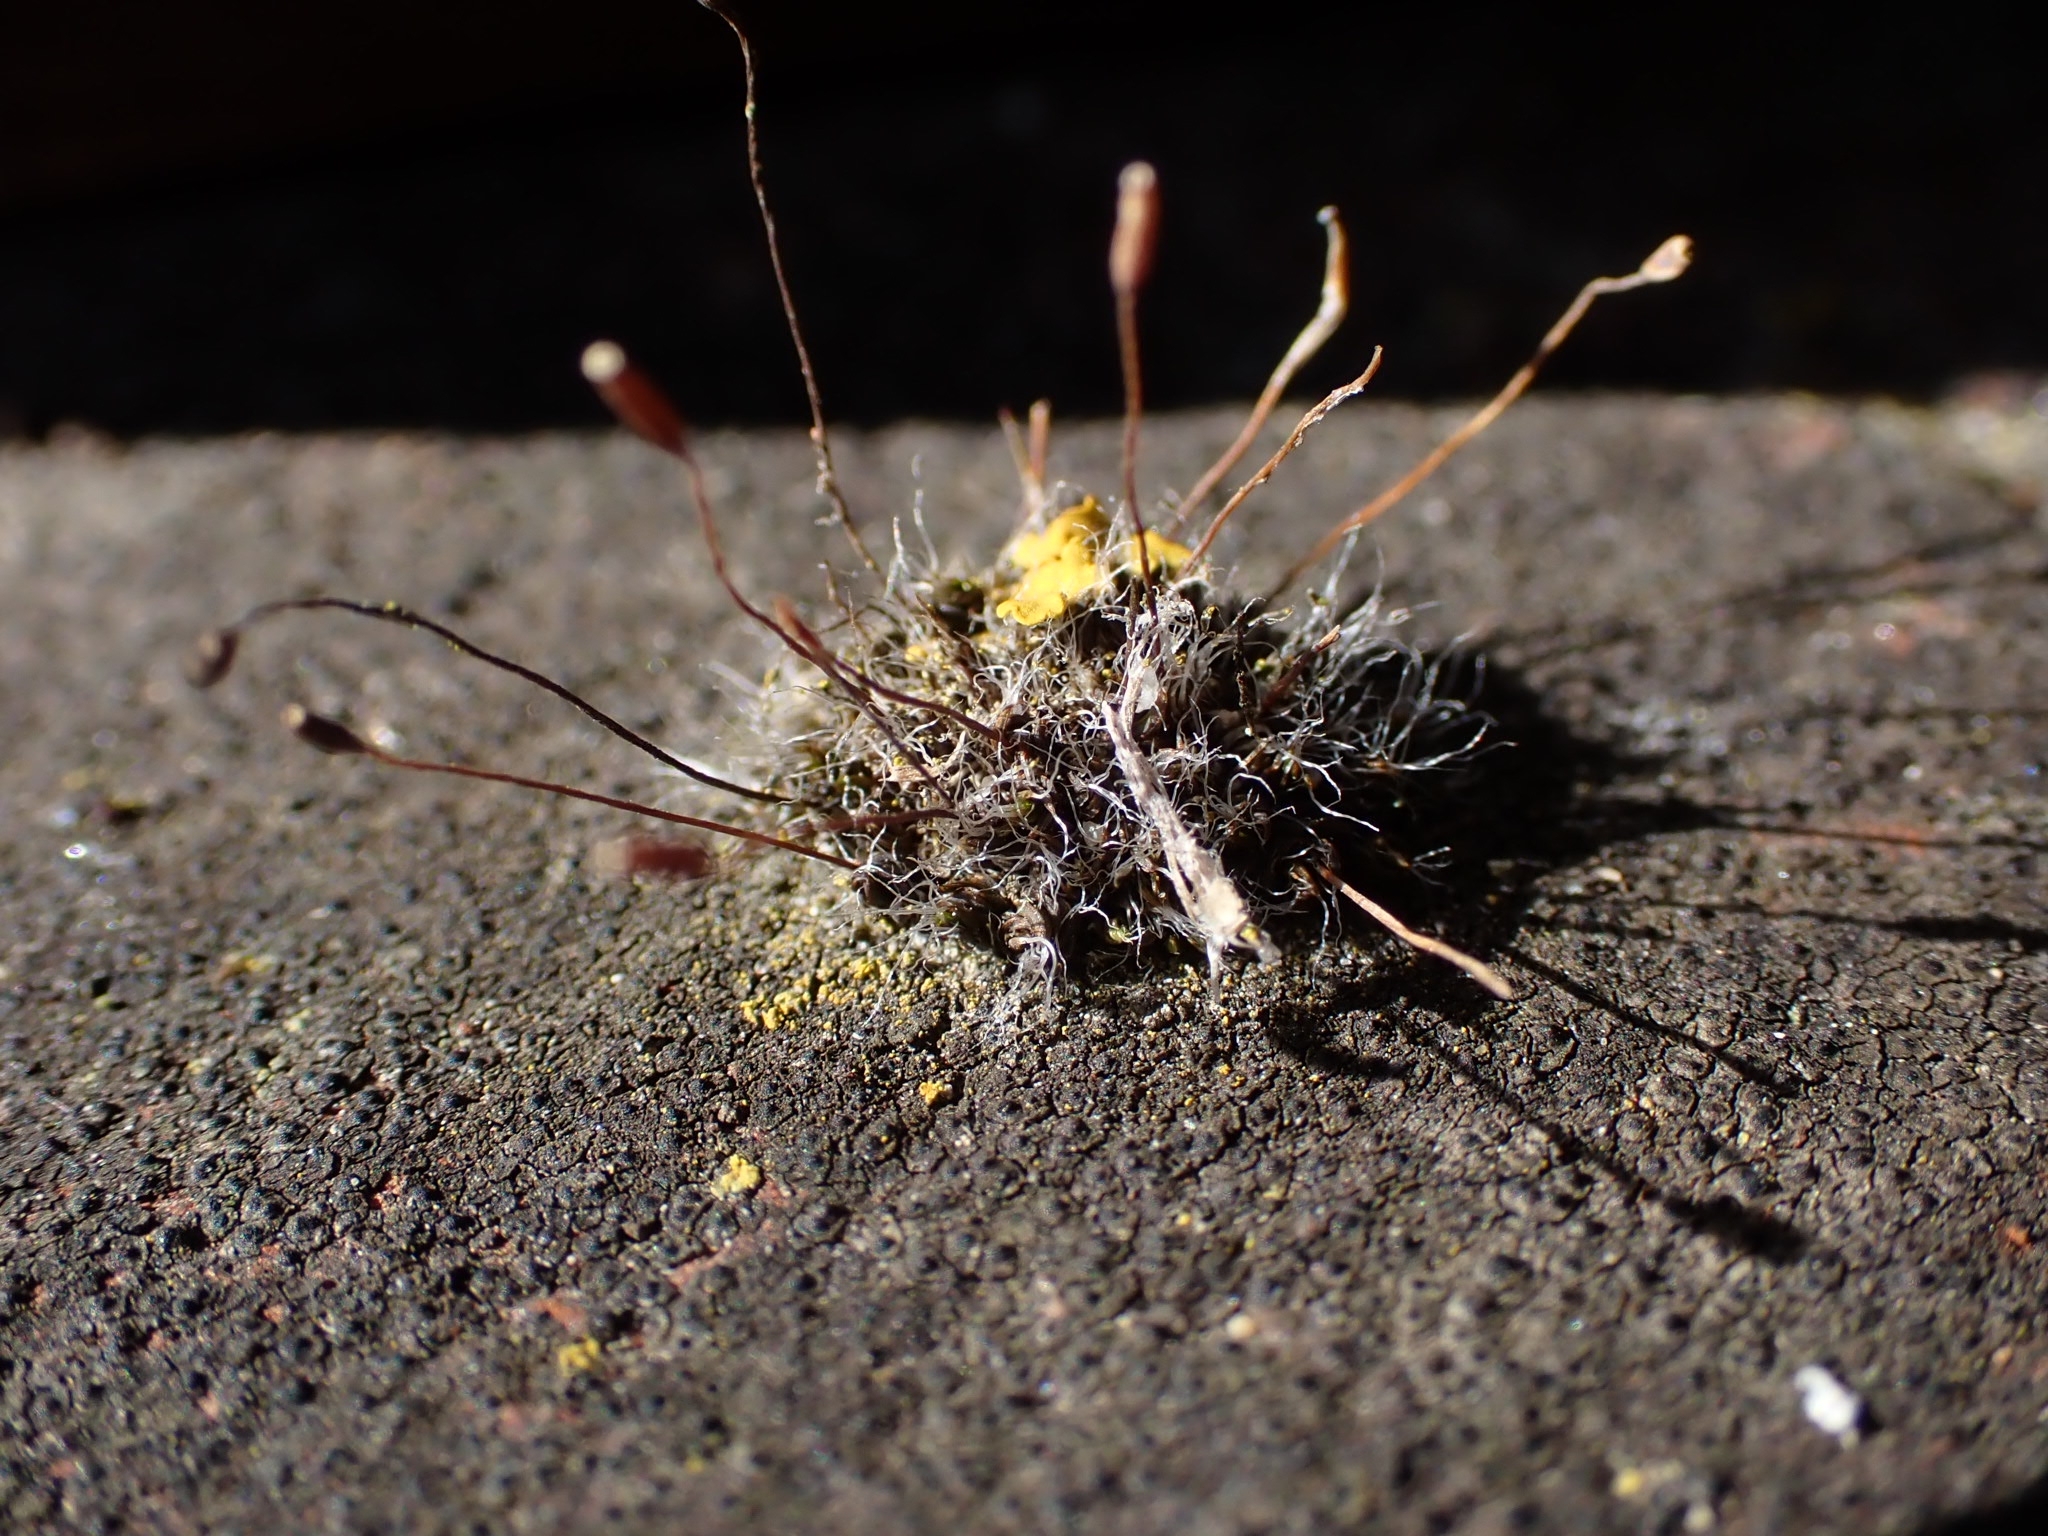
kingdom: Plantae
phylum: Bryophyta
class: Bryopsida
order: Pottiales
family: Pottiaceae
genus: Tortula
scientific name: Tortula muralis
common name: Wall screw-moss
